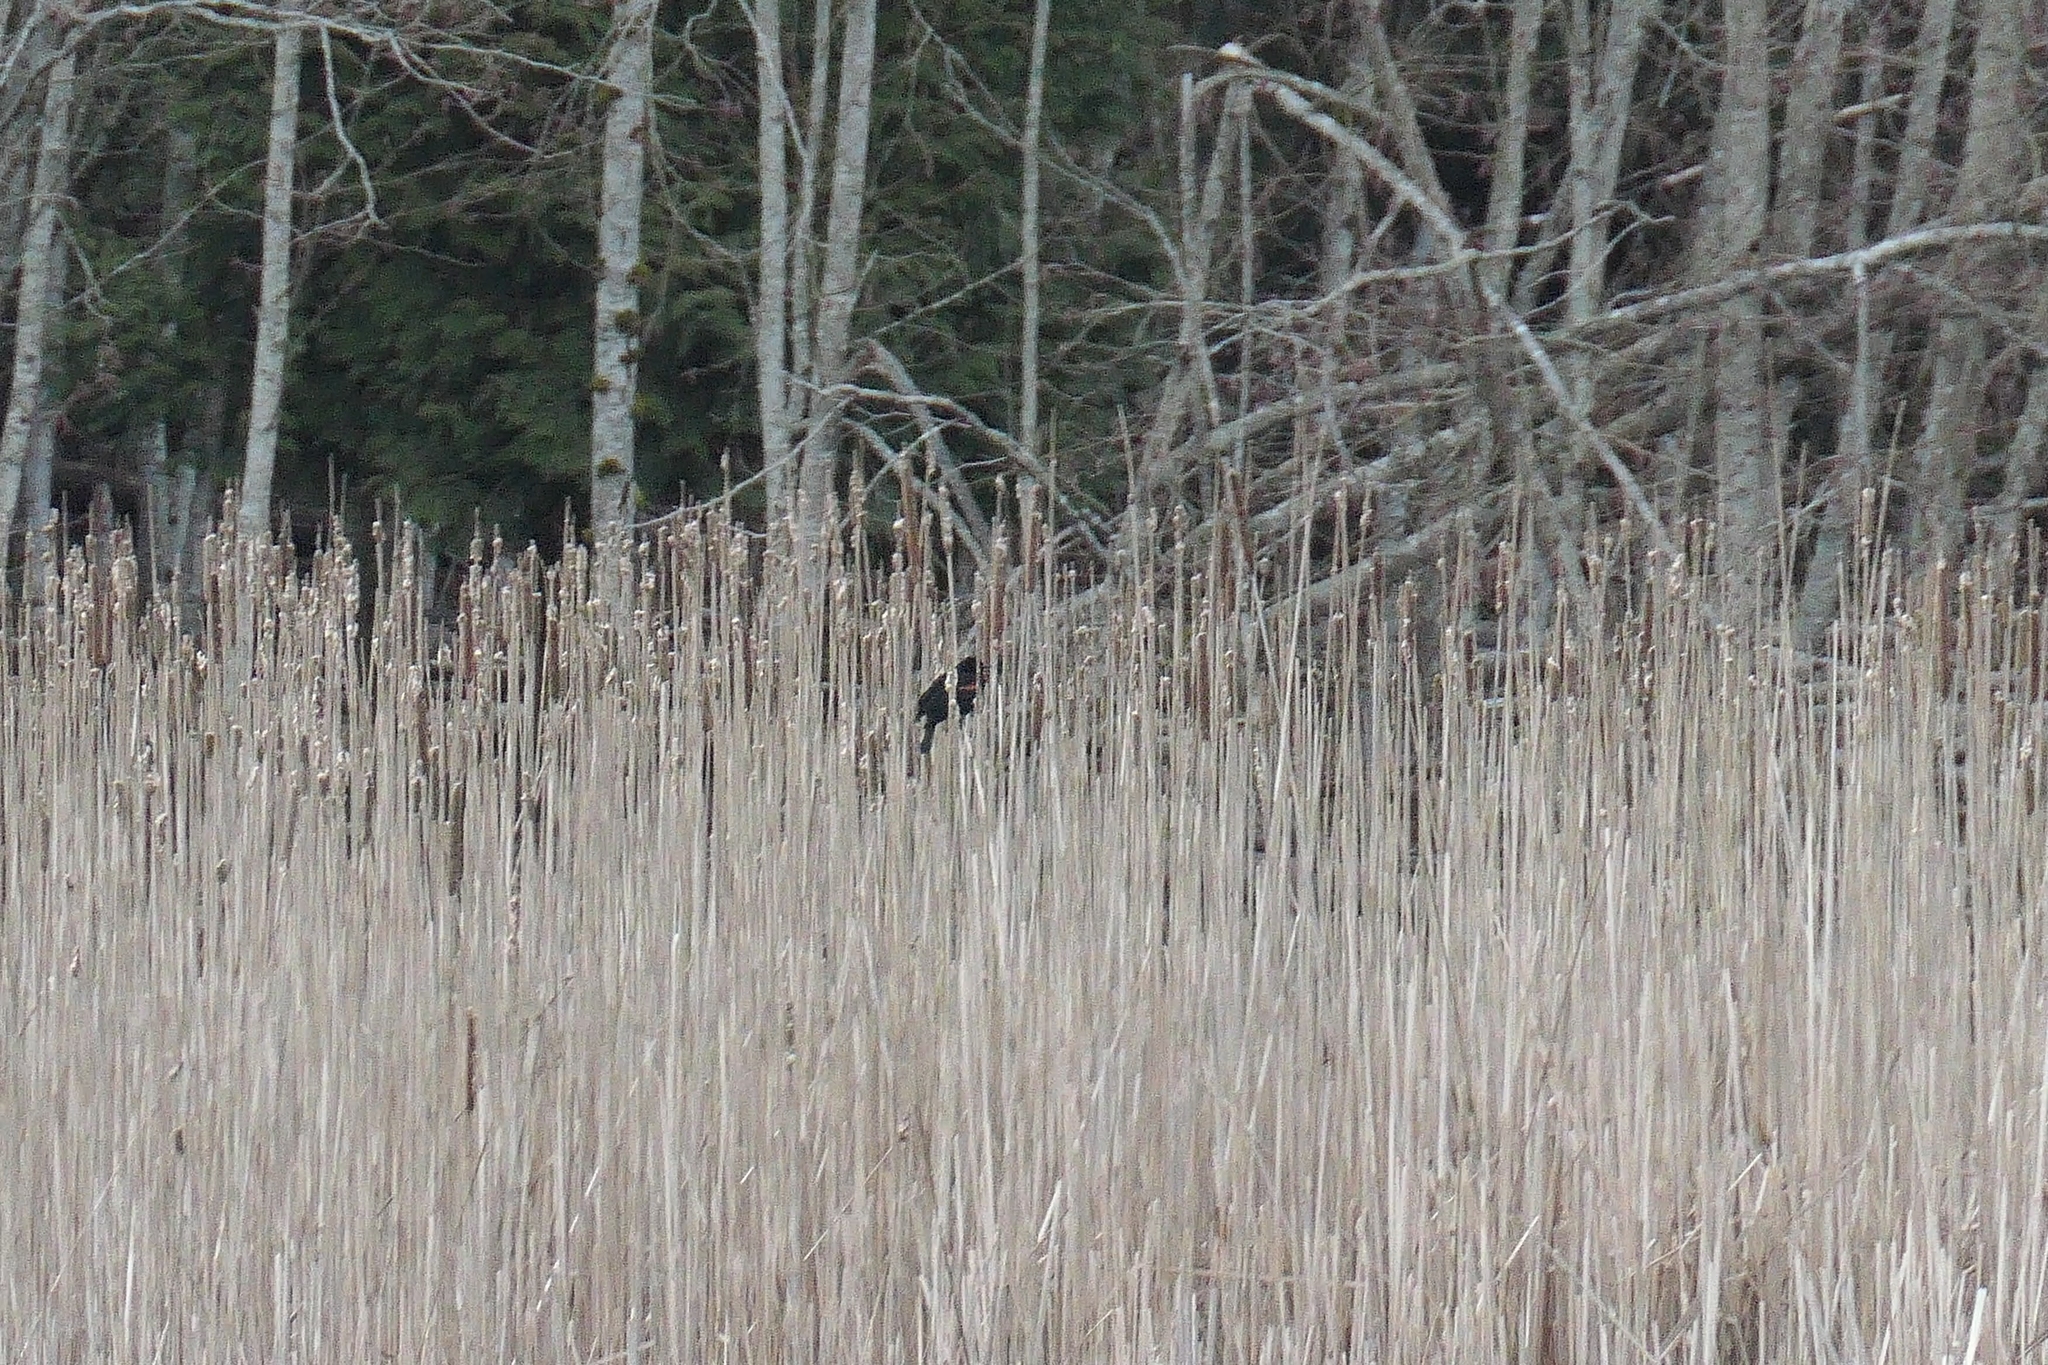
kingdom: Animalia
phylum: Chordata
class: Aves
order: Passeriformes
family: Icteridae
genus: Agelaius
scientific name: Agelaius phoeniceus
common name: Red-winged blackbird
